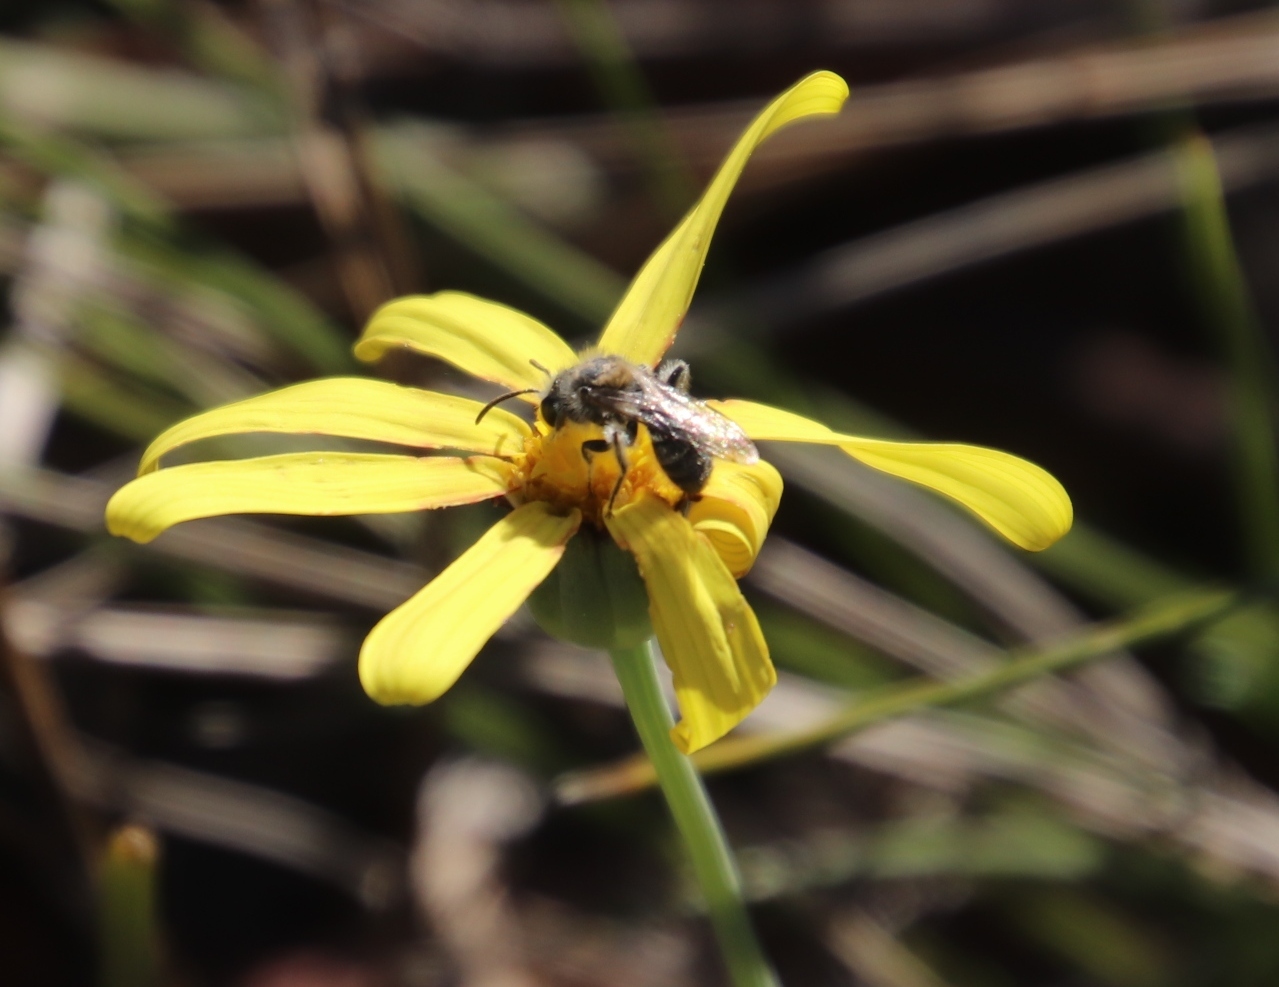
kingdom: Plantae
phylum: Tracheophyta
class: Magnoliopsida
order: Asterales
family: Asteraceae
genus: Othonna
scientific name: Othonna pinnata
